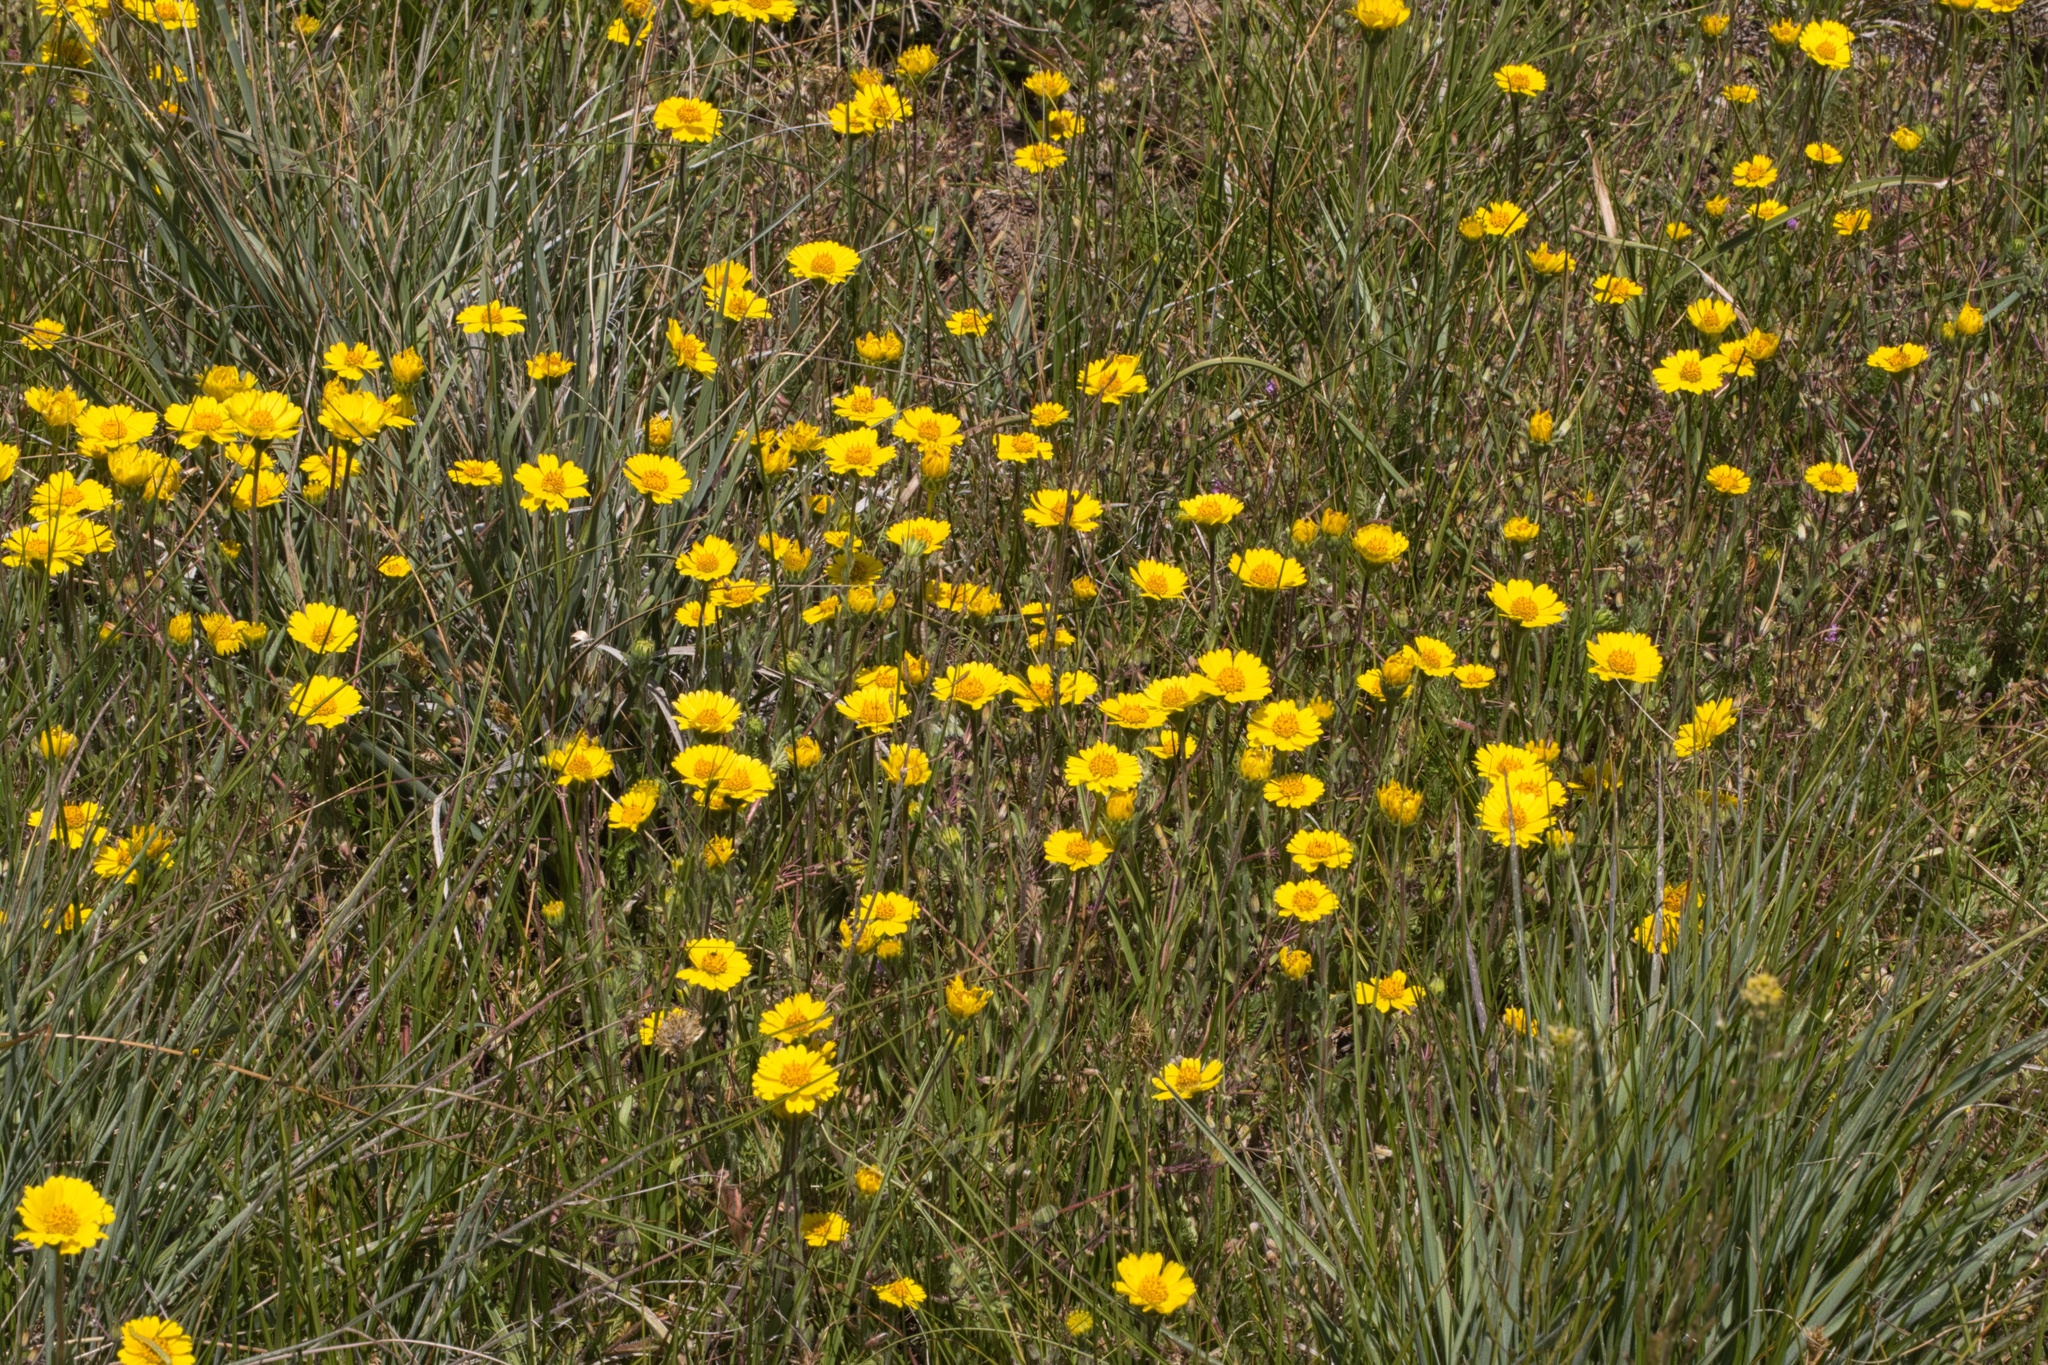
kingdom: Plantae
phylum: Tracheophyta
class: Magnoliopsida
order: Asterales
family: Asteraceae
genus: Layia
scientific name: Layia platyglossa
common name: Tidy-tips
